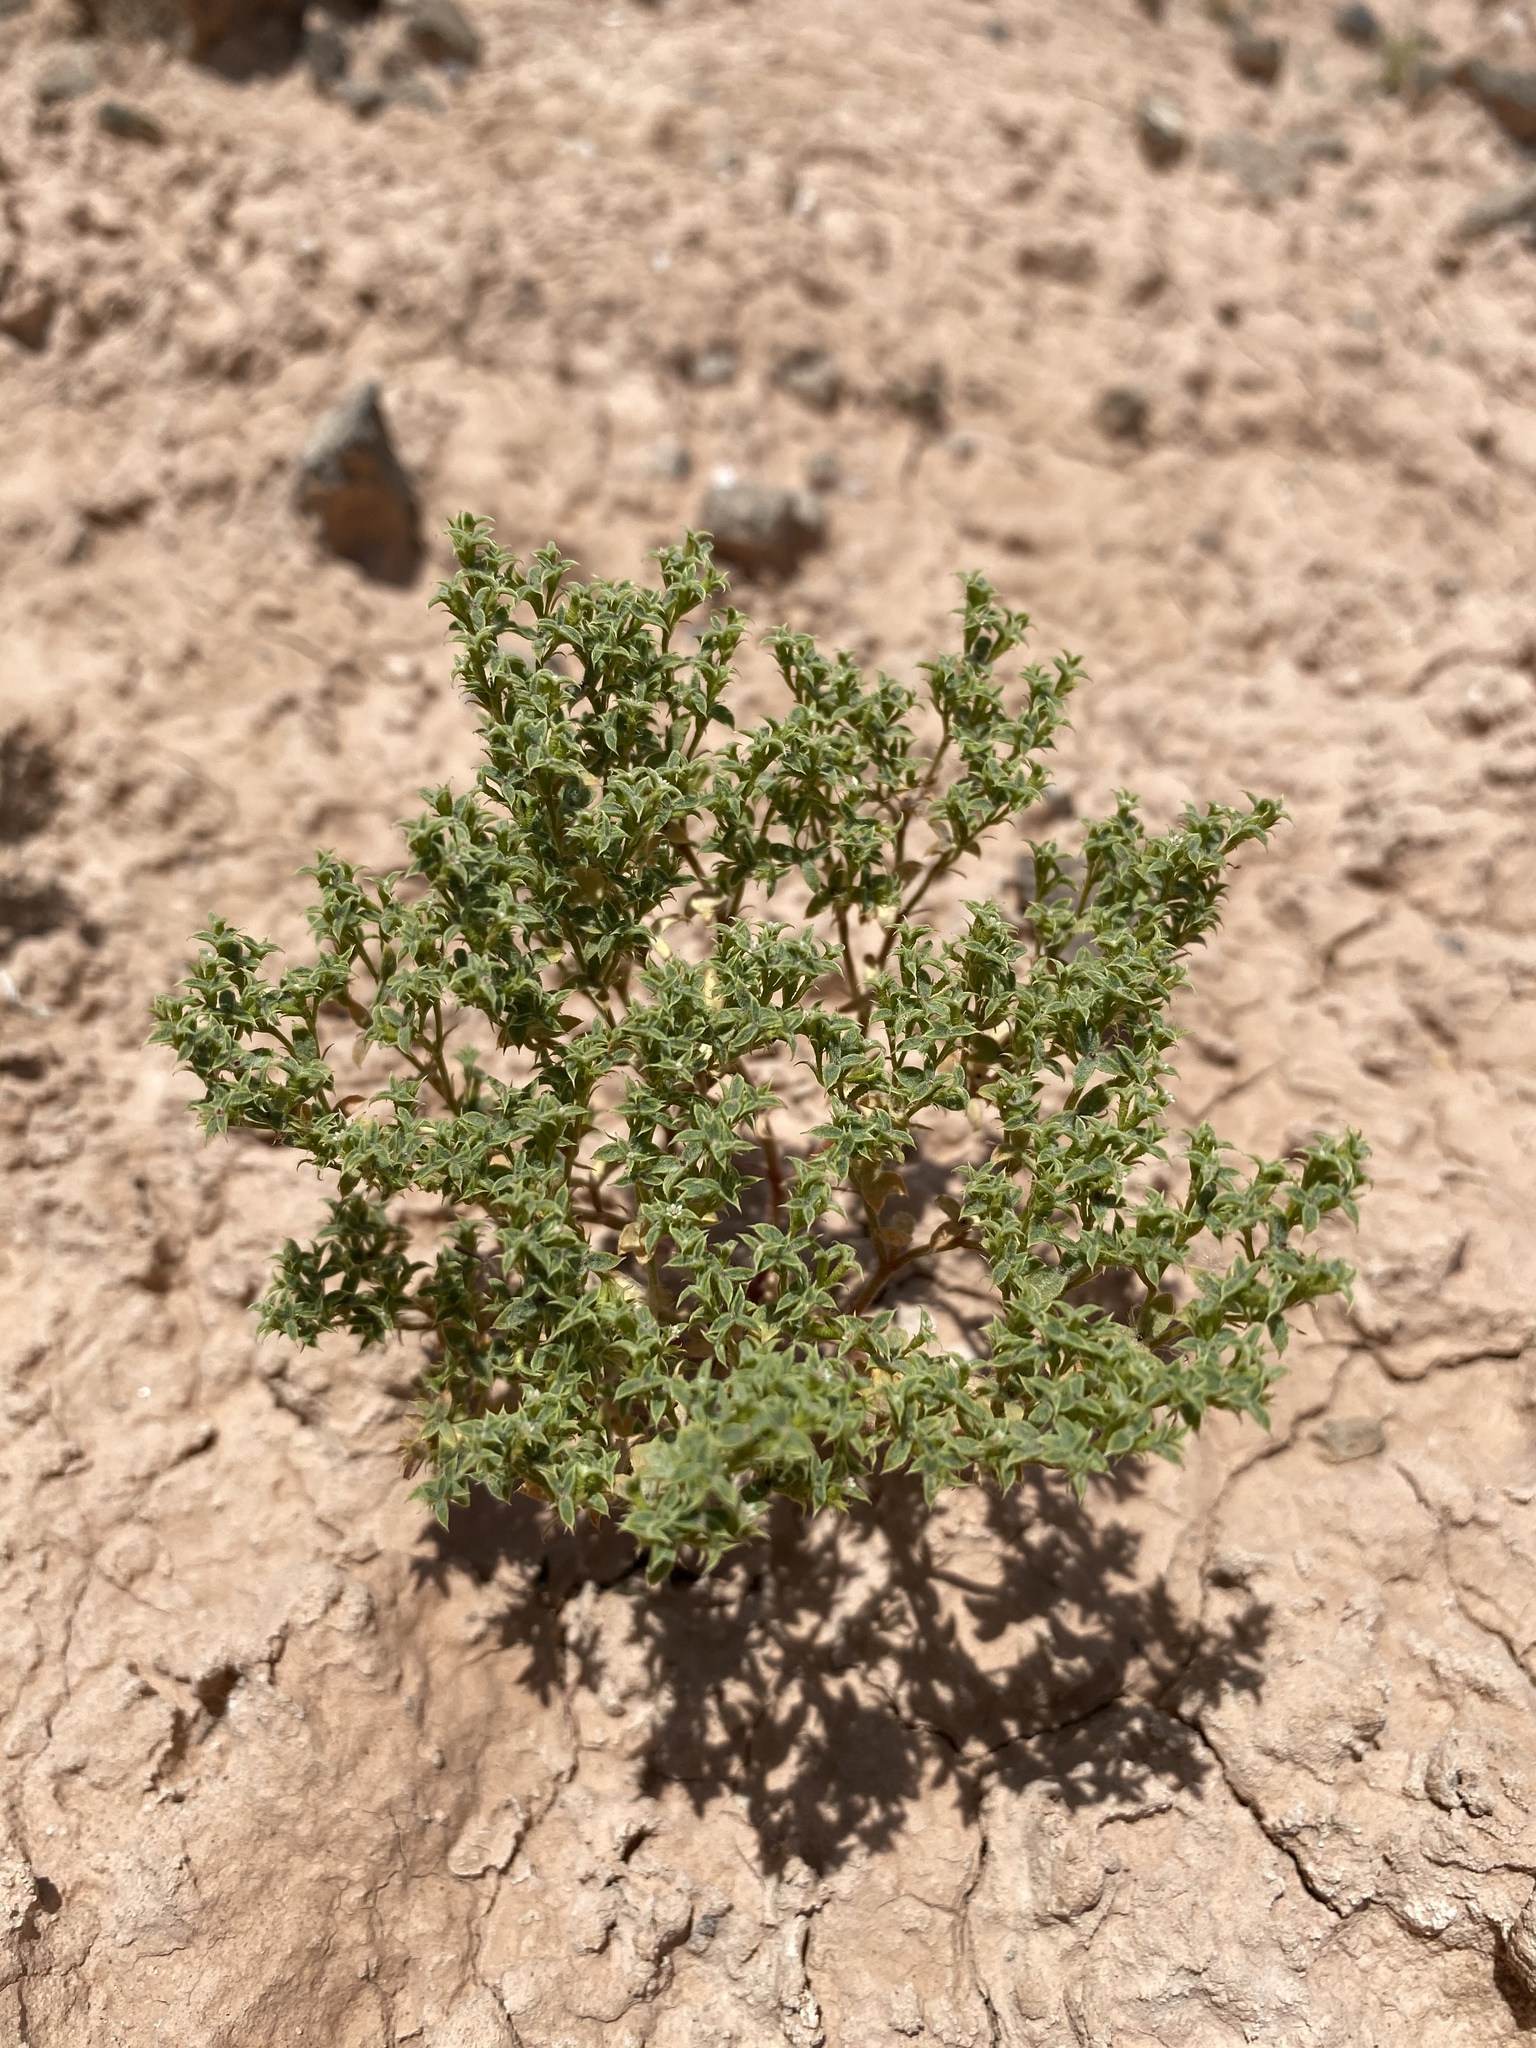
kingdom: Plantae
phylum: Tracheophyta
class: Magnoliopsida
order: Caryophyllales
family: Polygonaceae
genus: Chorizanthe
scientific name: Chorizanthe corrugata
